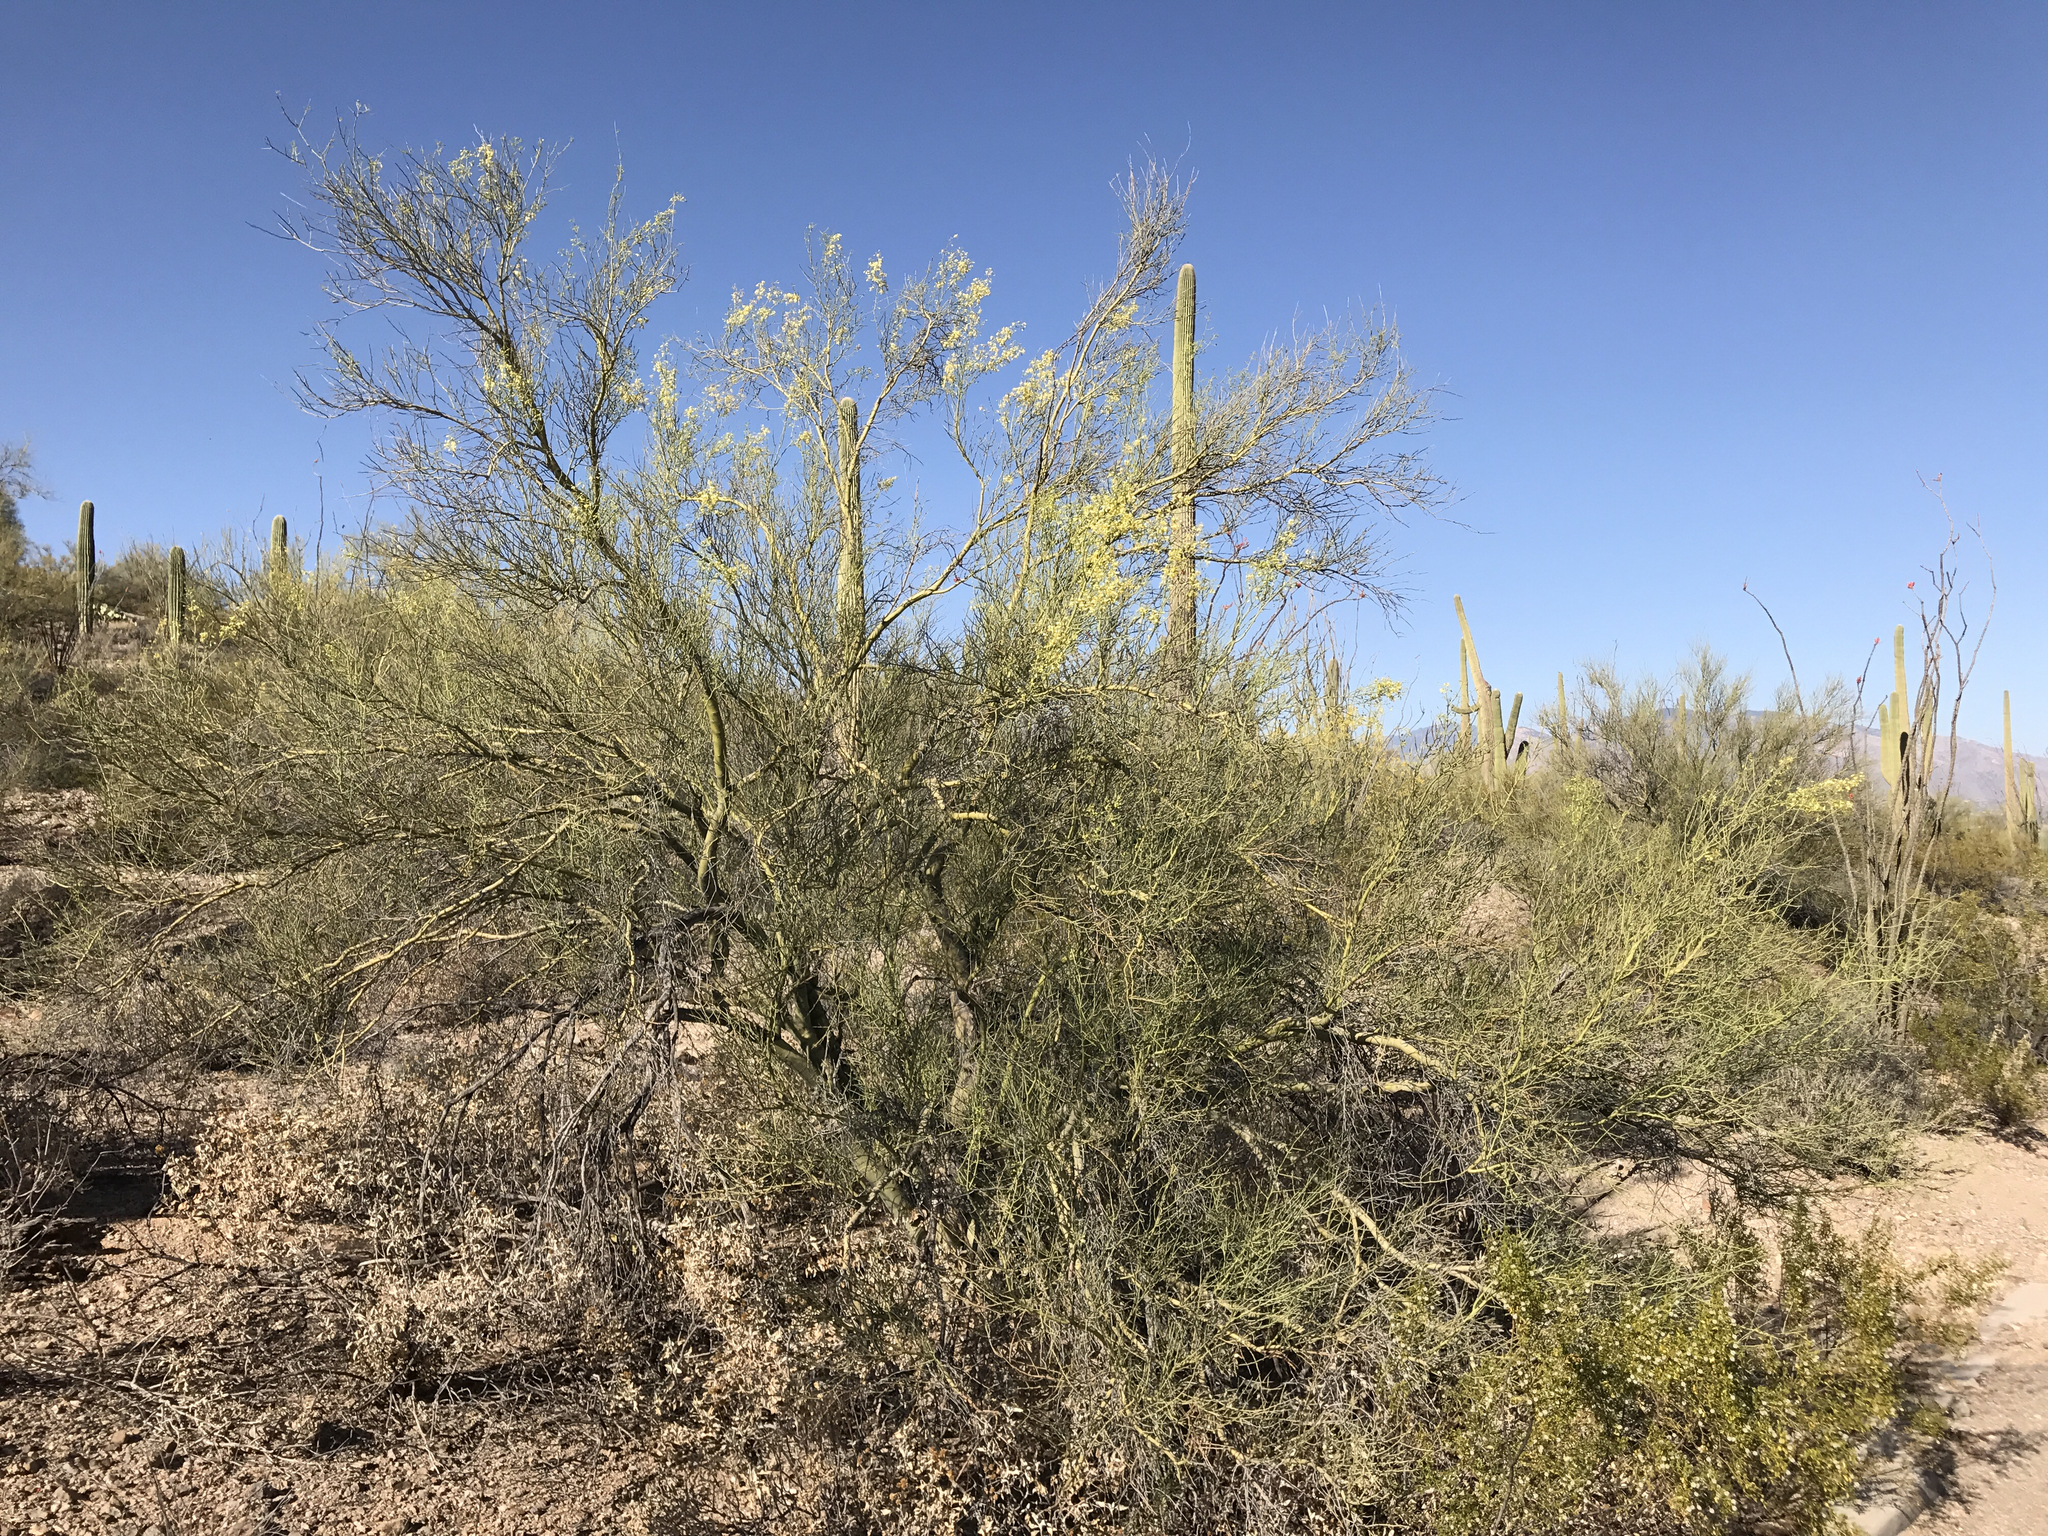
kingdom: Plantae
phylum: Tracheophyta
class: Magnoliopsida
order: Fabales
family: Fabaceae
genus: Parkinsonia
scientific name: Parkinsonia microphylla
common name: Yellow paloverde
